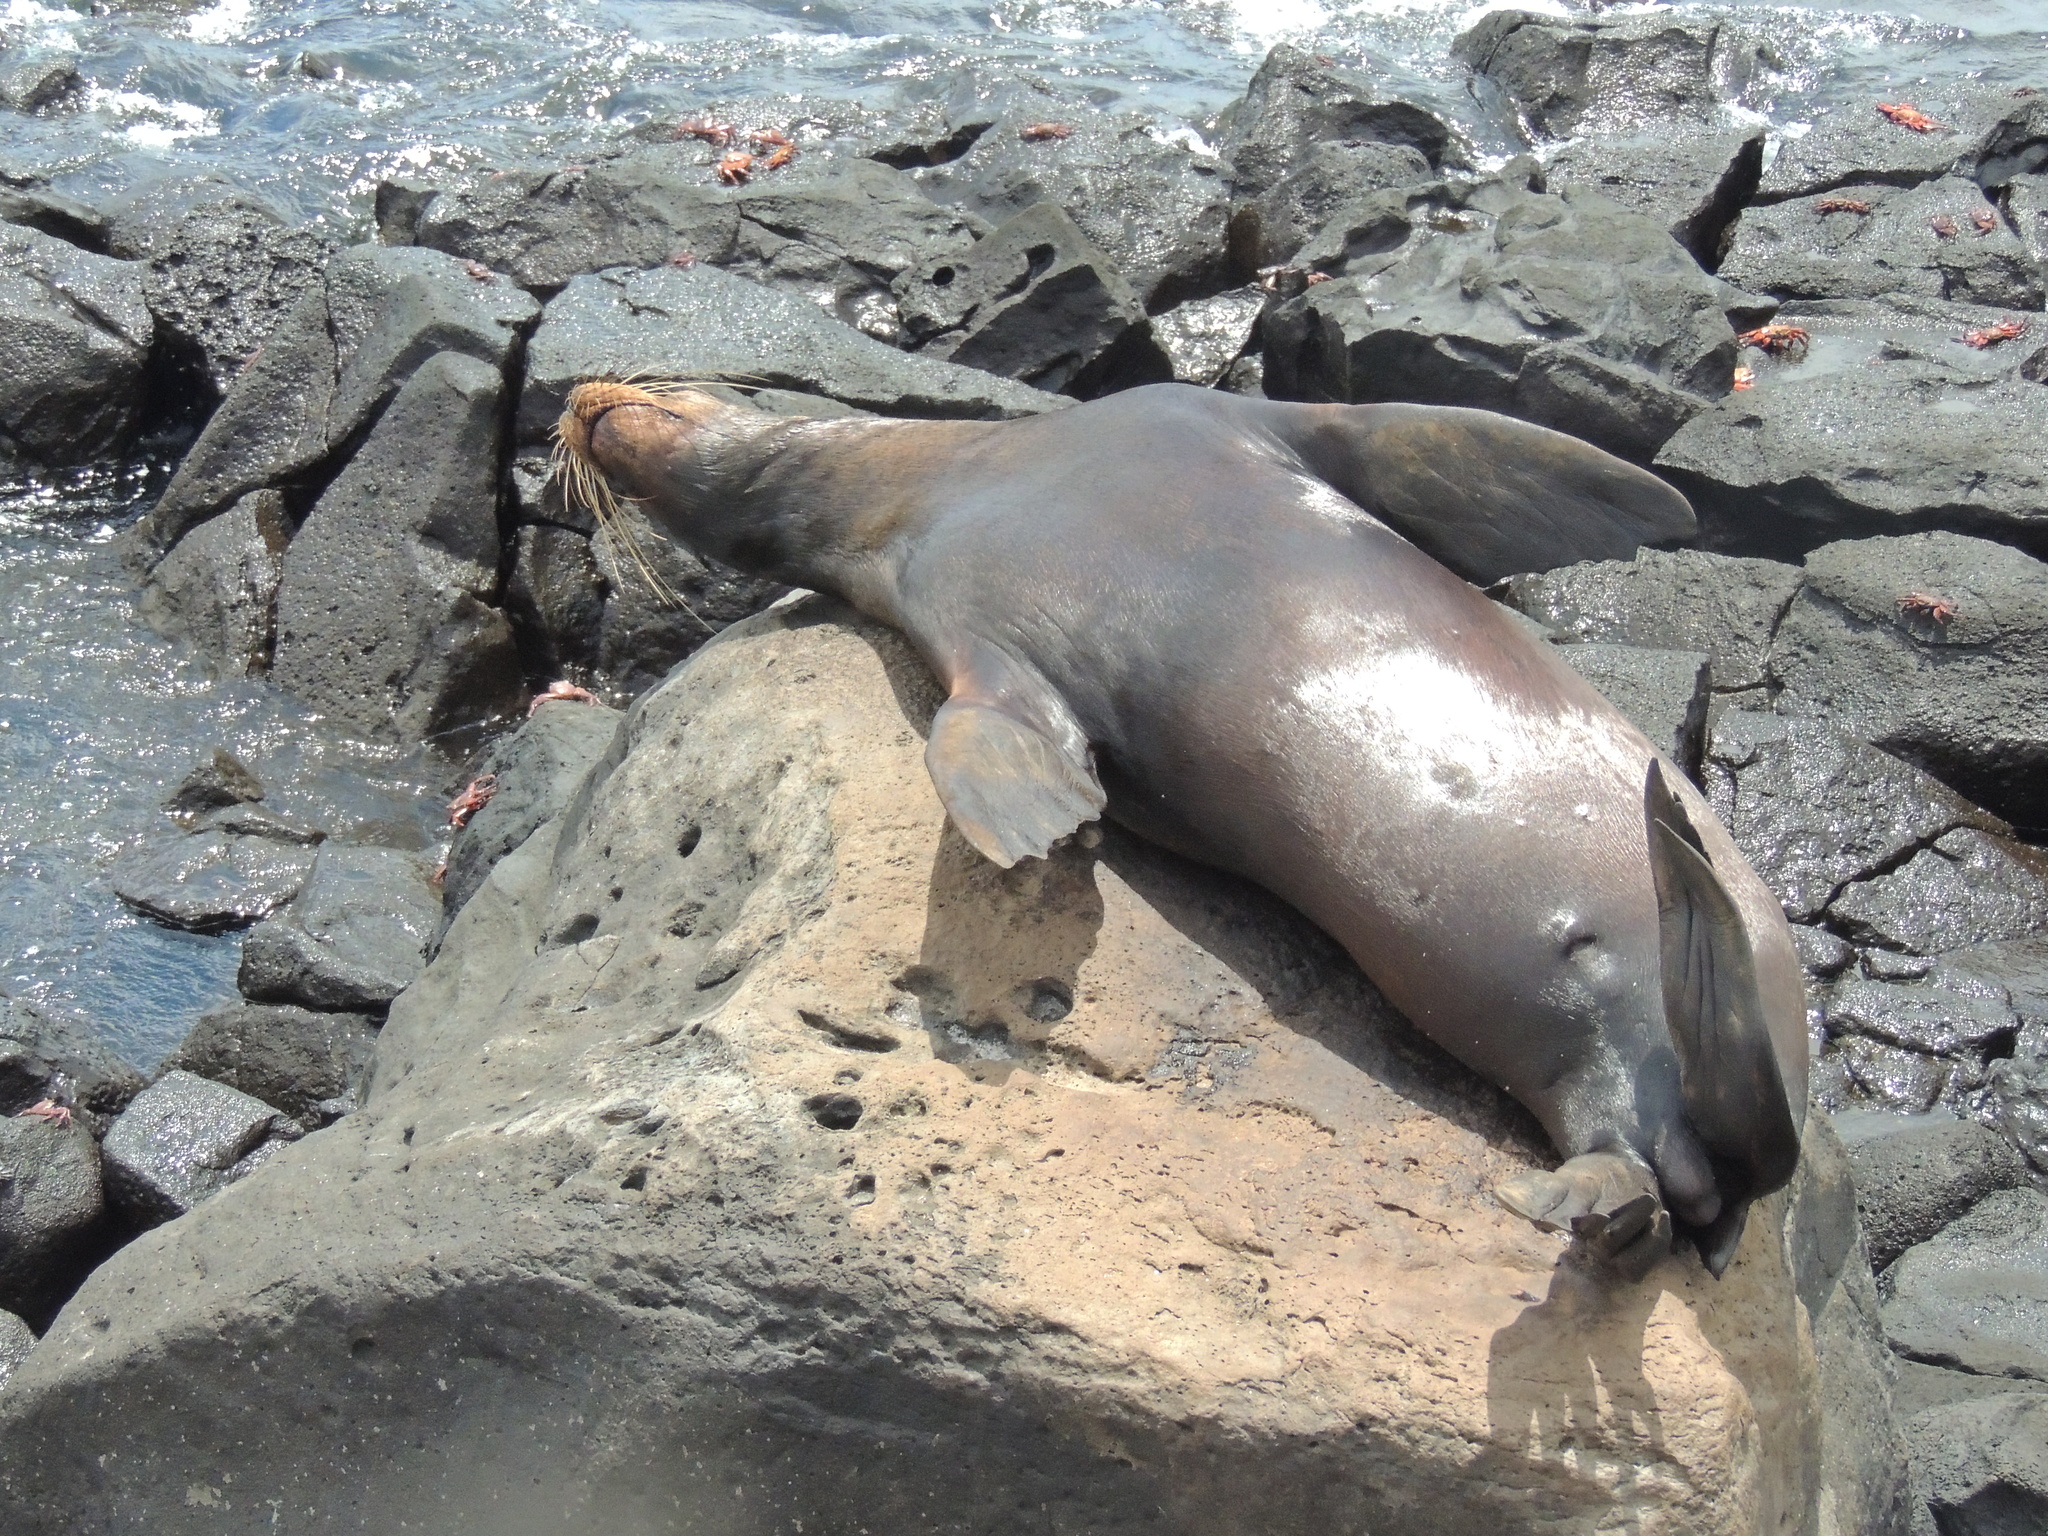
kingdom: Animalia
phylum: Chordata
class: Mammalia
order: Carnivora
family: Otariidae
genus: Zalophus
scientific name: Zalophus wollebaeki
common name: Galapagos sea lion
